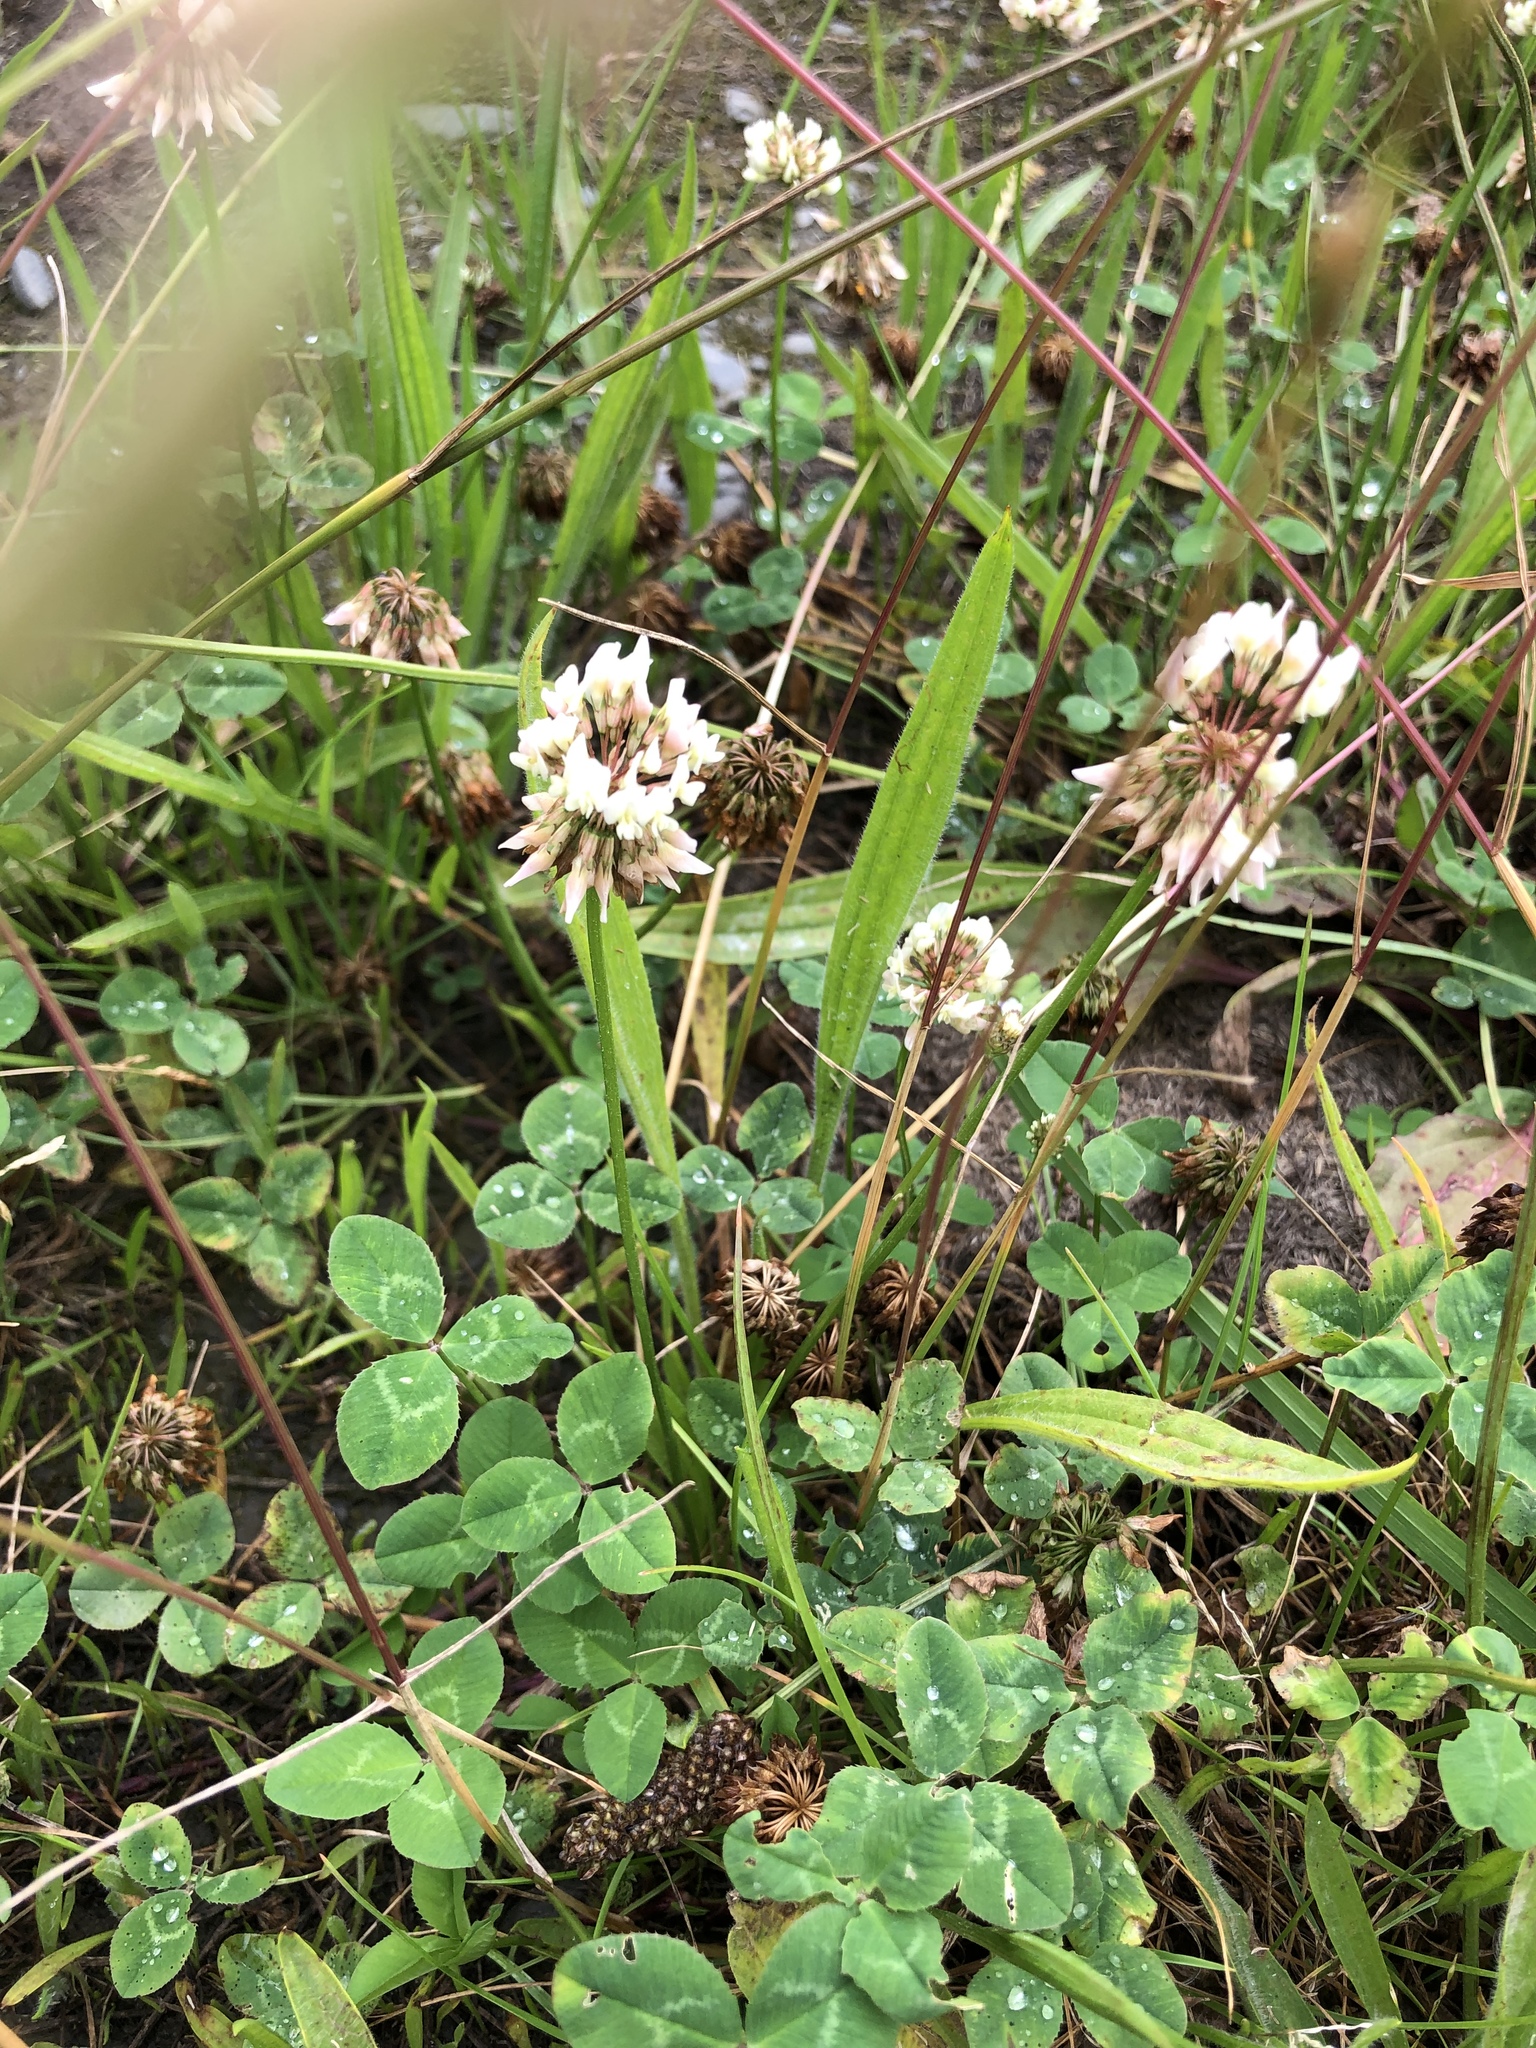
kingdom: Plantae
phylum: Tracheophyta
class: Magnoliopsida
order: Fabales
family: Fabaceae
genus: Trifolium
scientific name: Trifolium repens
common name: White clover
